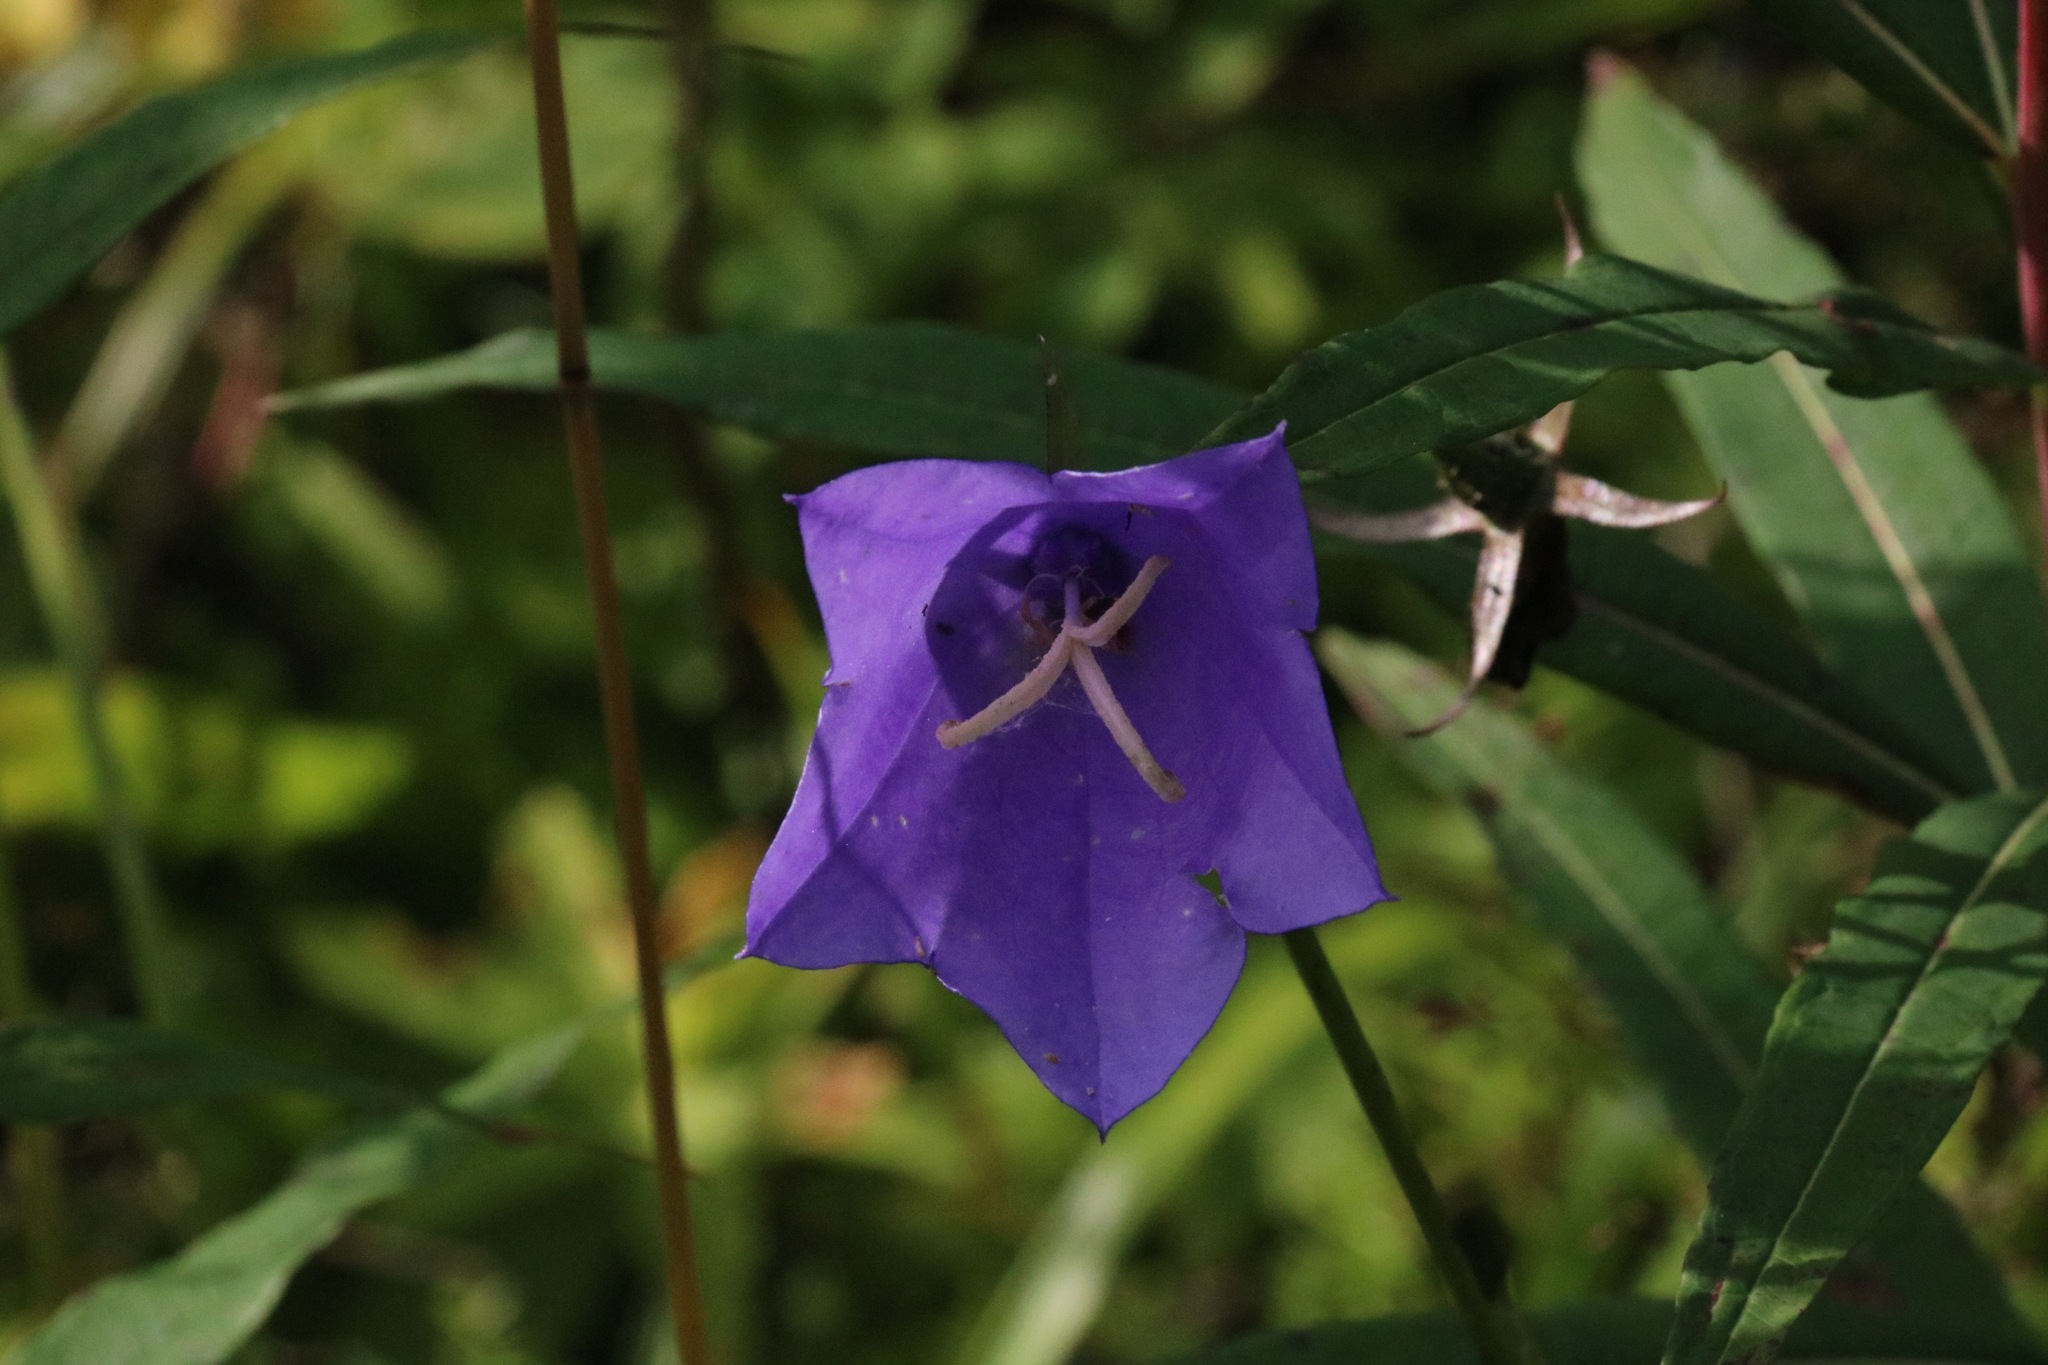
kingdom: Plantae
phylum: Tracheophyta
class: Magnoliopsida
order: Asterales
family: Campanulaceae
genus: Campanula
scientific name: Campanula persicifolia
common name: Peach-leaved bellflower
